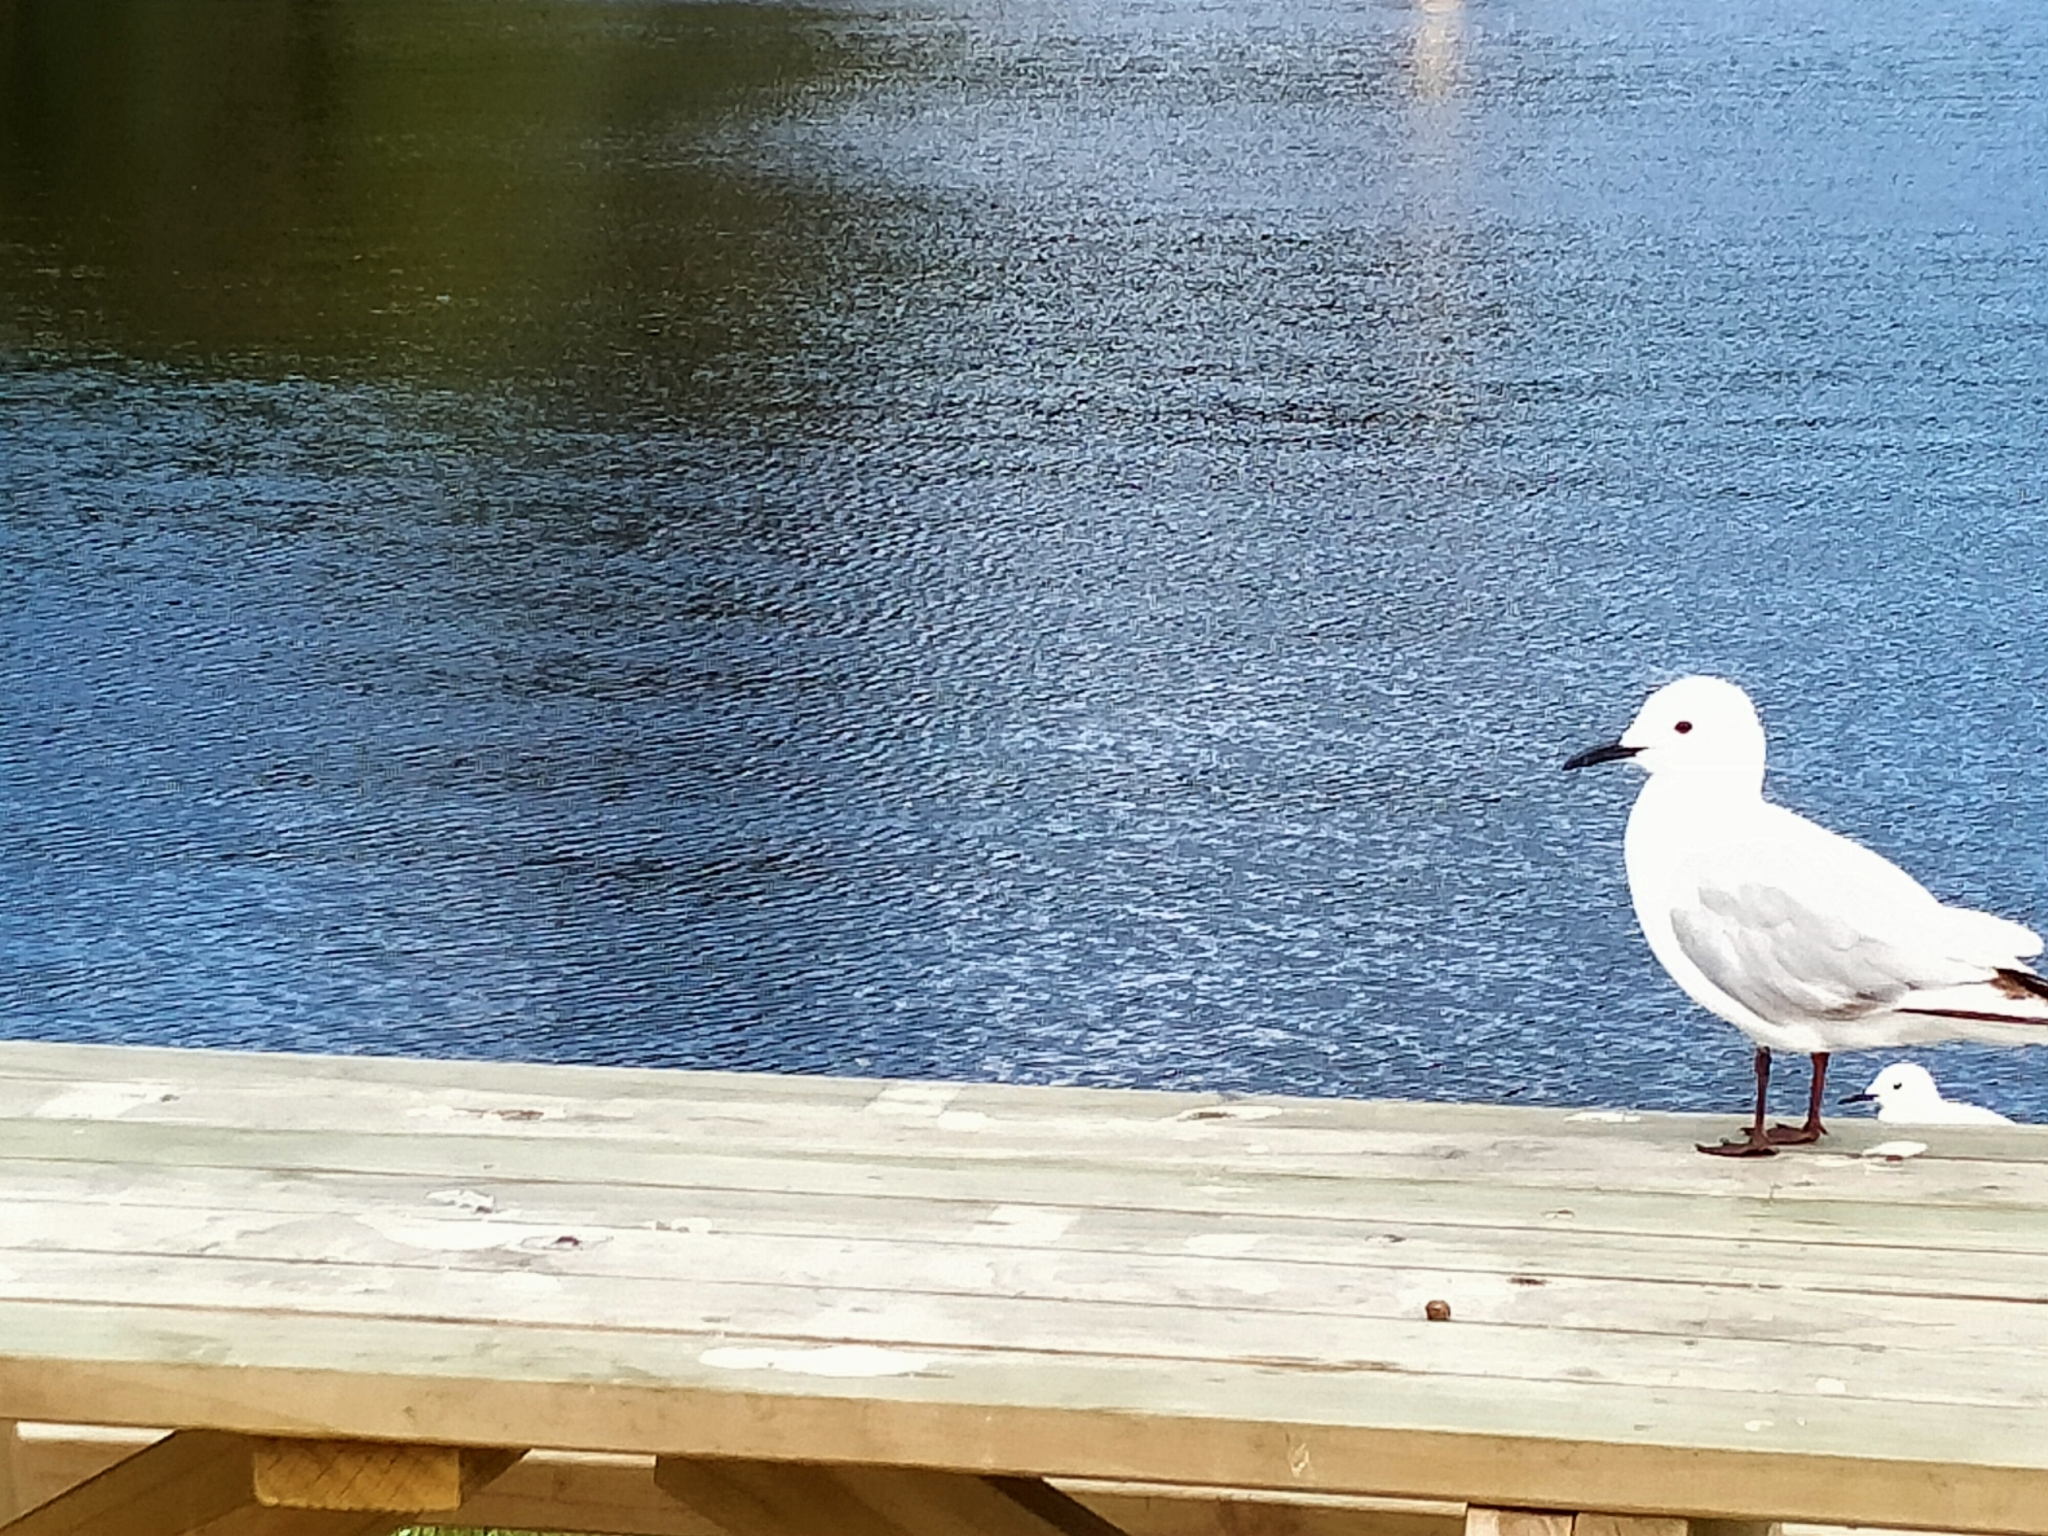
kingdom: Animalia
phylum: Chordata
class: Aves
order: Charadriiformes
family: Laridae
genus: Chroicocephalus
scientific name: Chroicocephalus bulleri
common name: Black-billed gull
